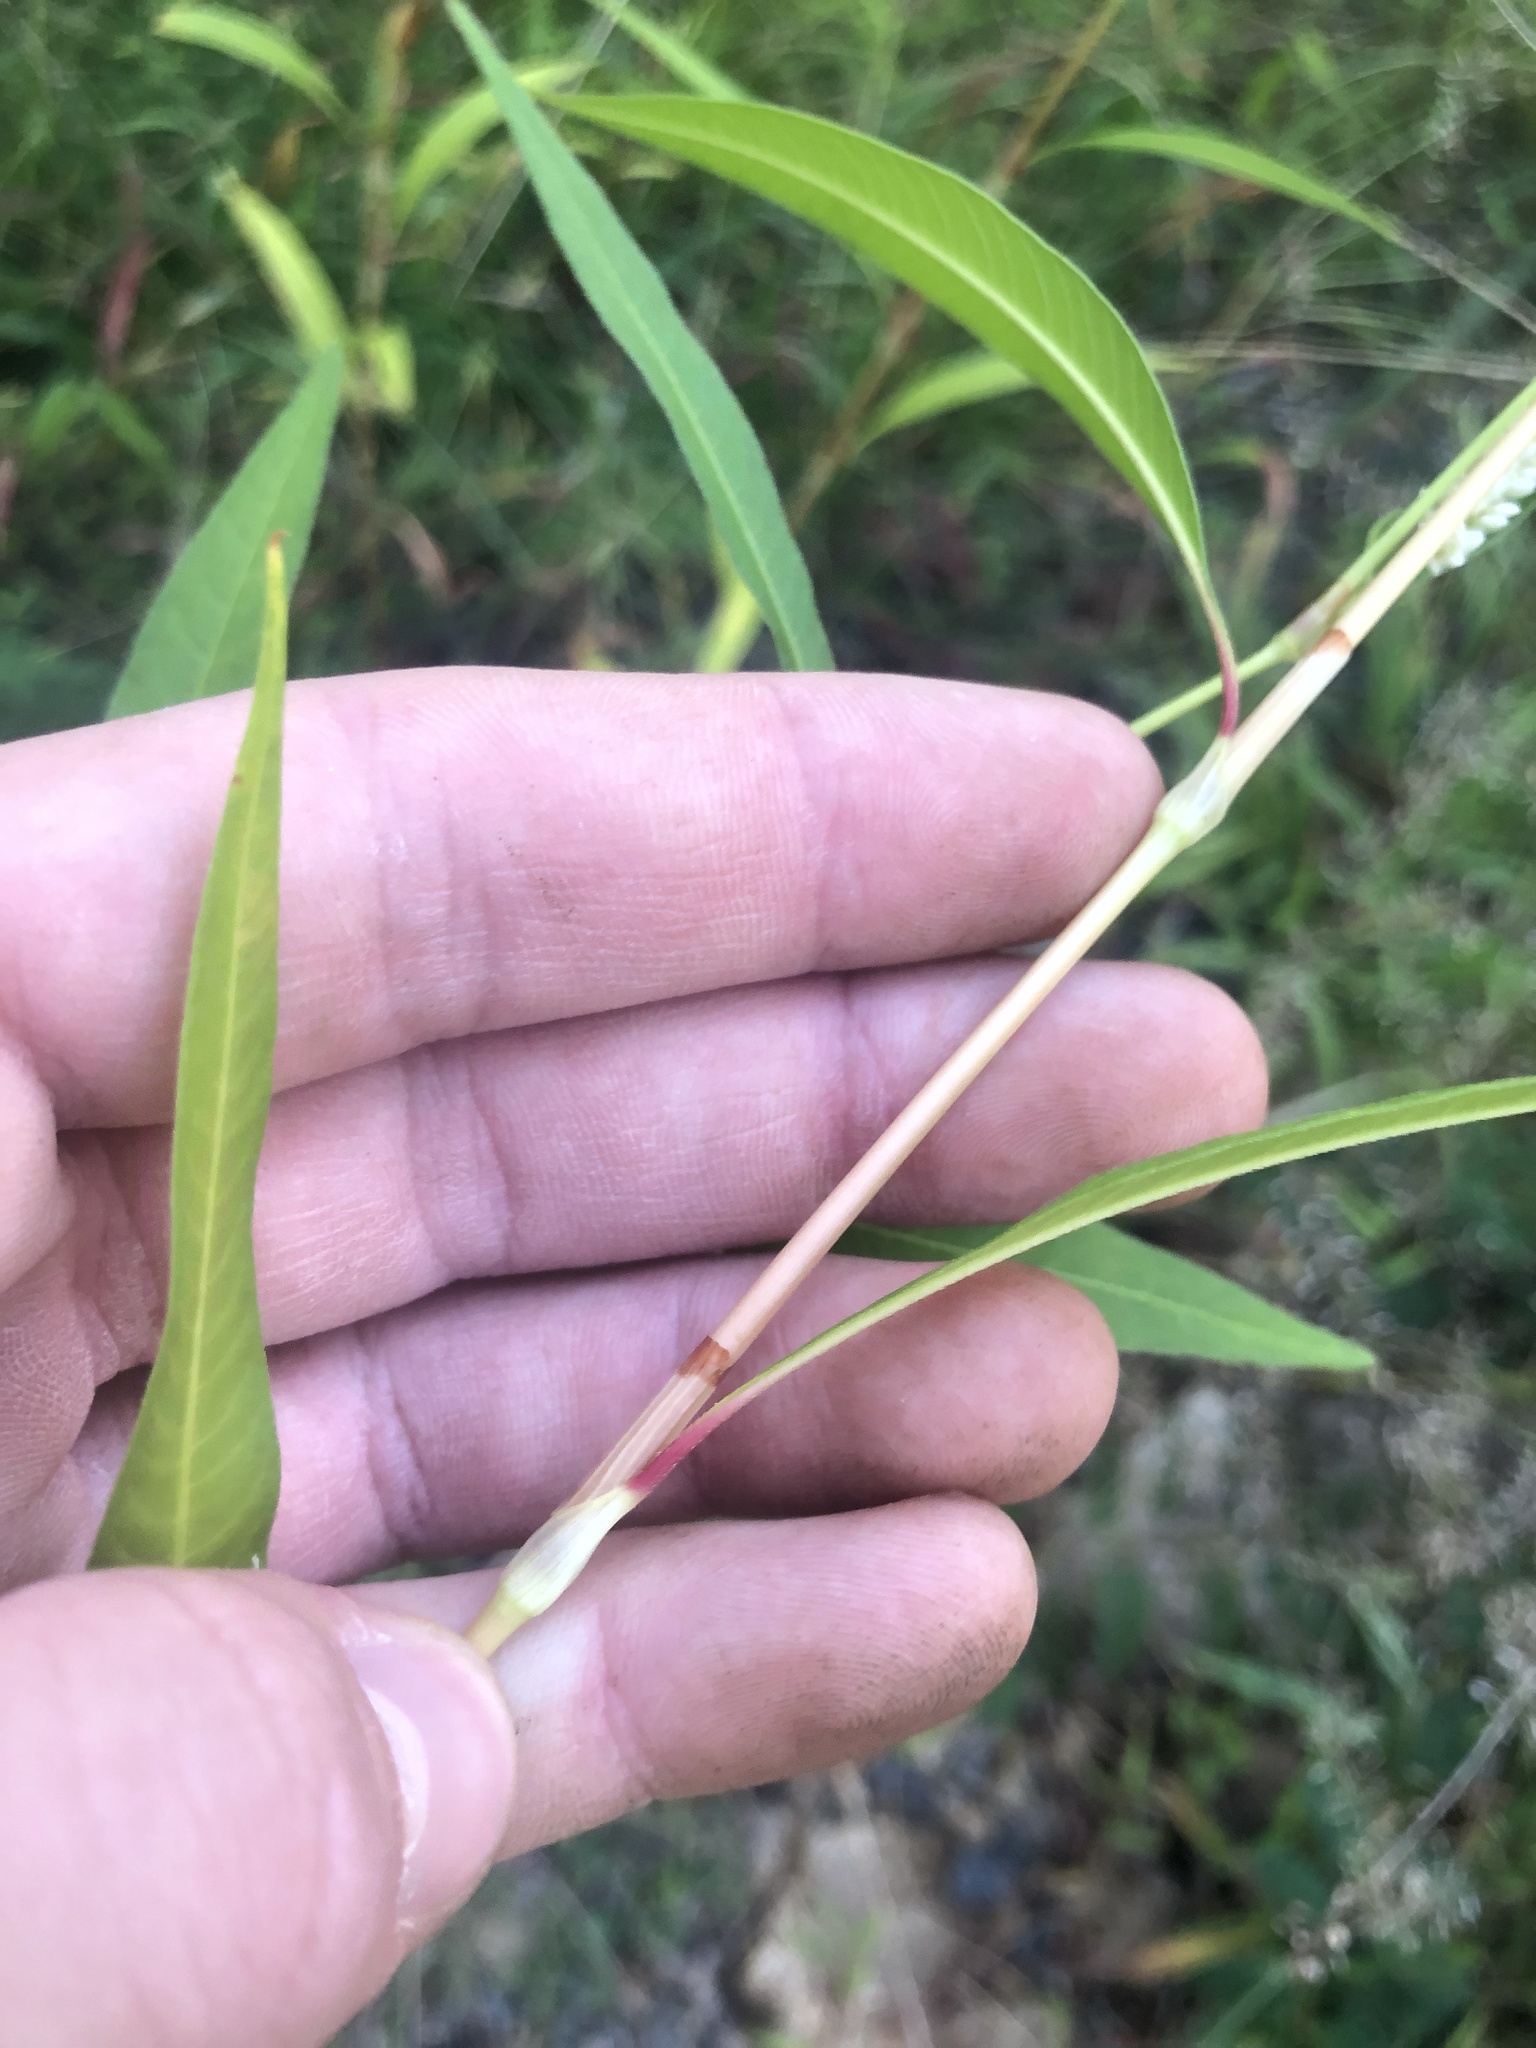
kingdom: Plantae
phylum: Tracheophyta
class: Magnoliopsida
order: Caryophyllales
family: Polygonaceae
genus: Persicaria
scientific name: Persicaria lapathifolia
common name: Curlytop knotweed
